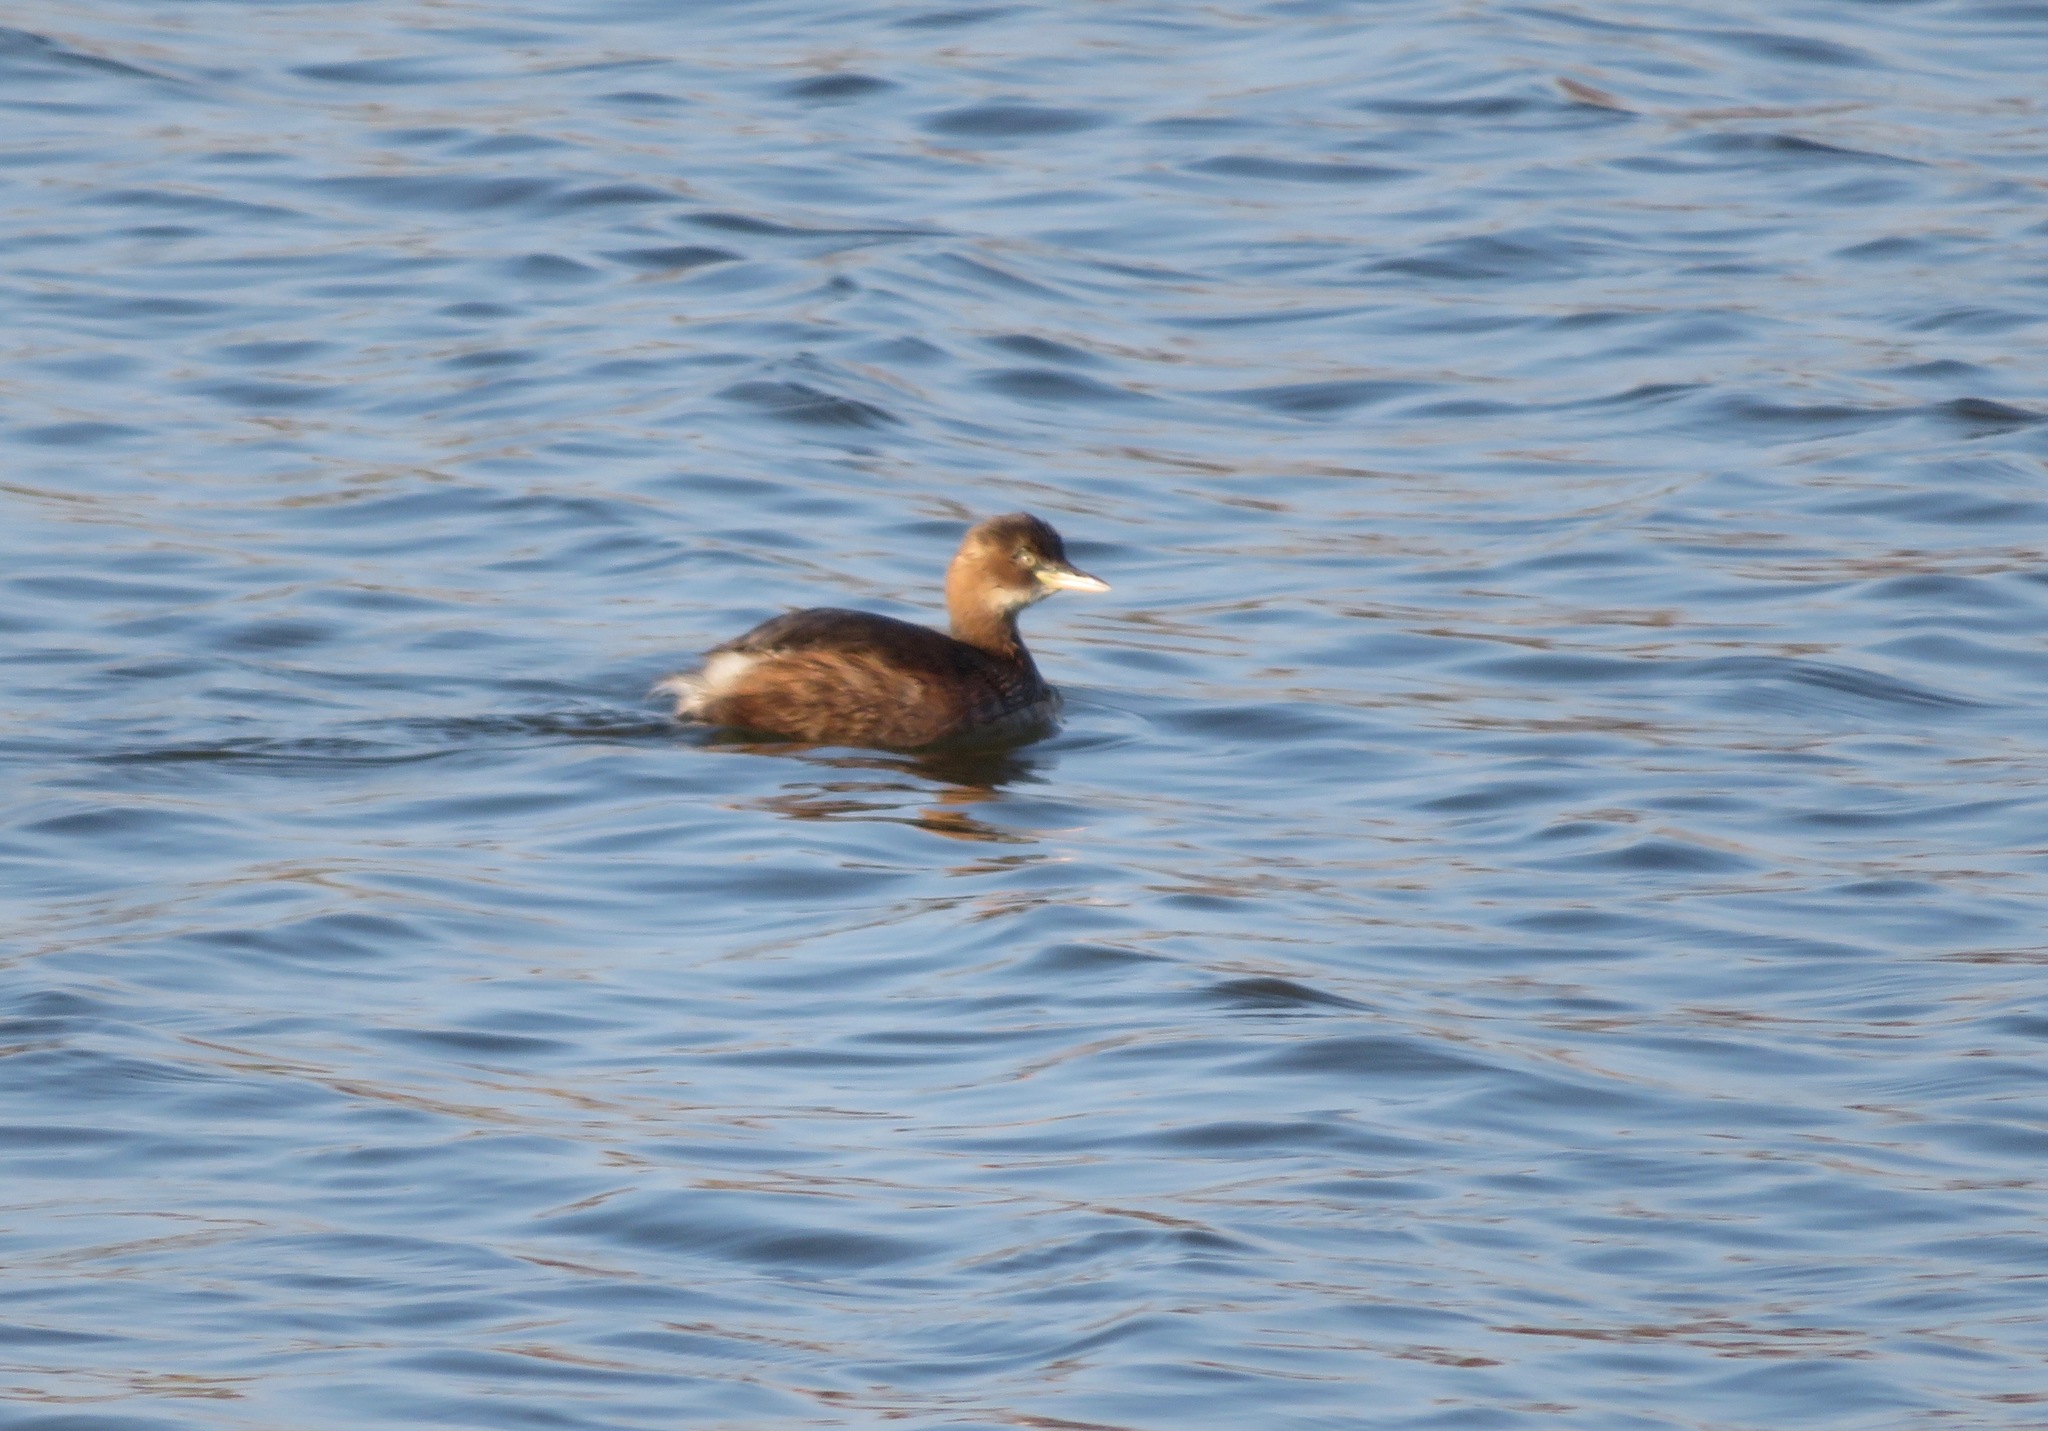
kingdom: Animalia
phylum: Chordata
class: Aves
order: Podicipediformes
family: Podicipedidae
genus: Tachybaptus
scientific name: Tachybaptus ruficollis
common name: Little grebe
